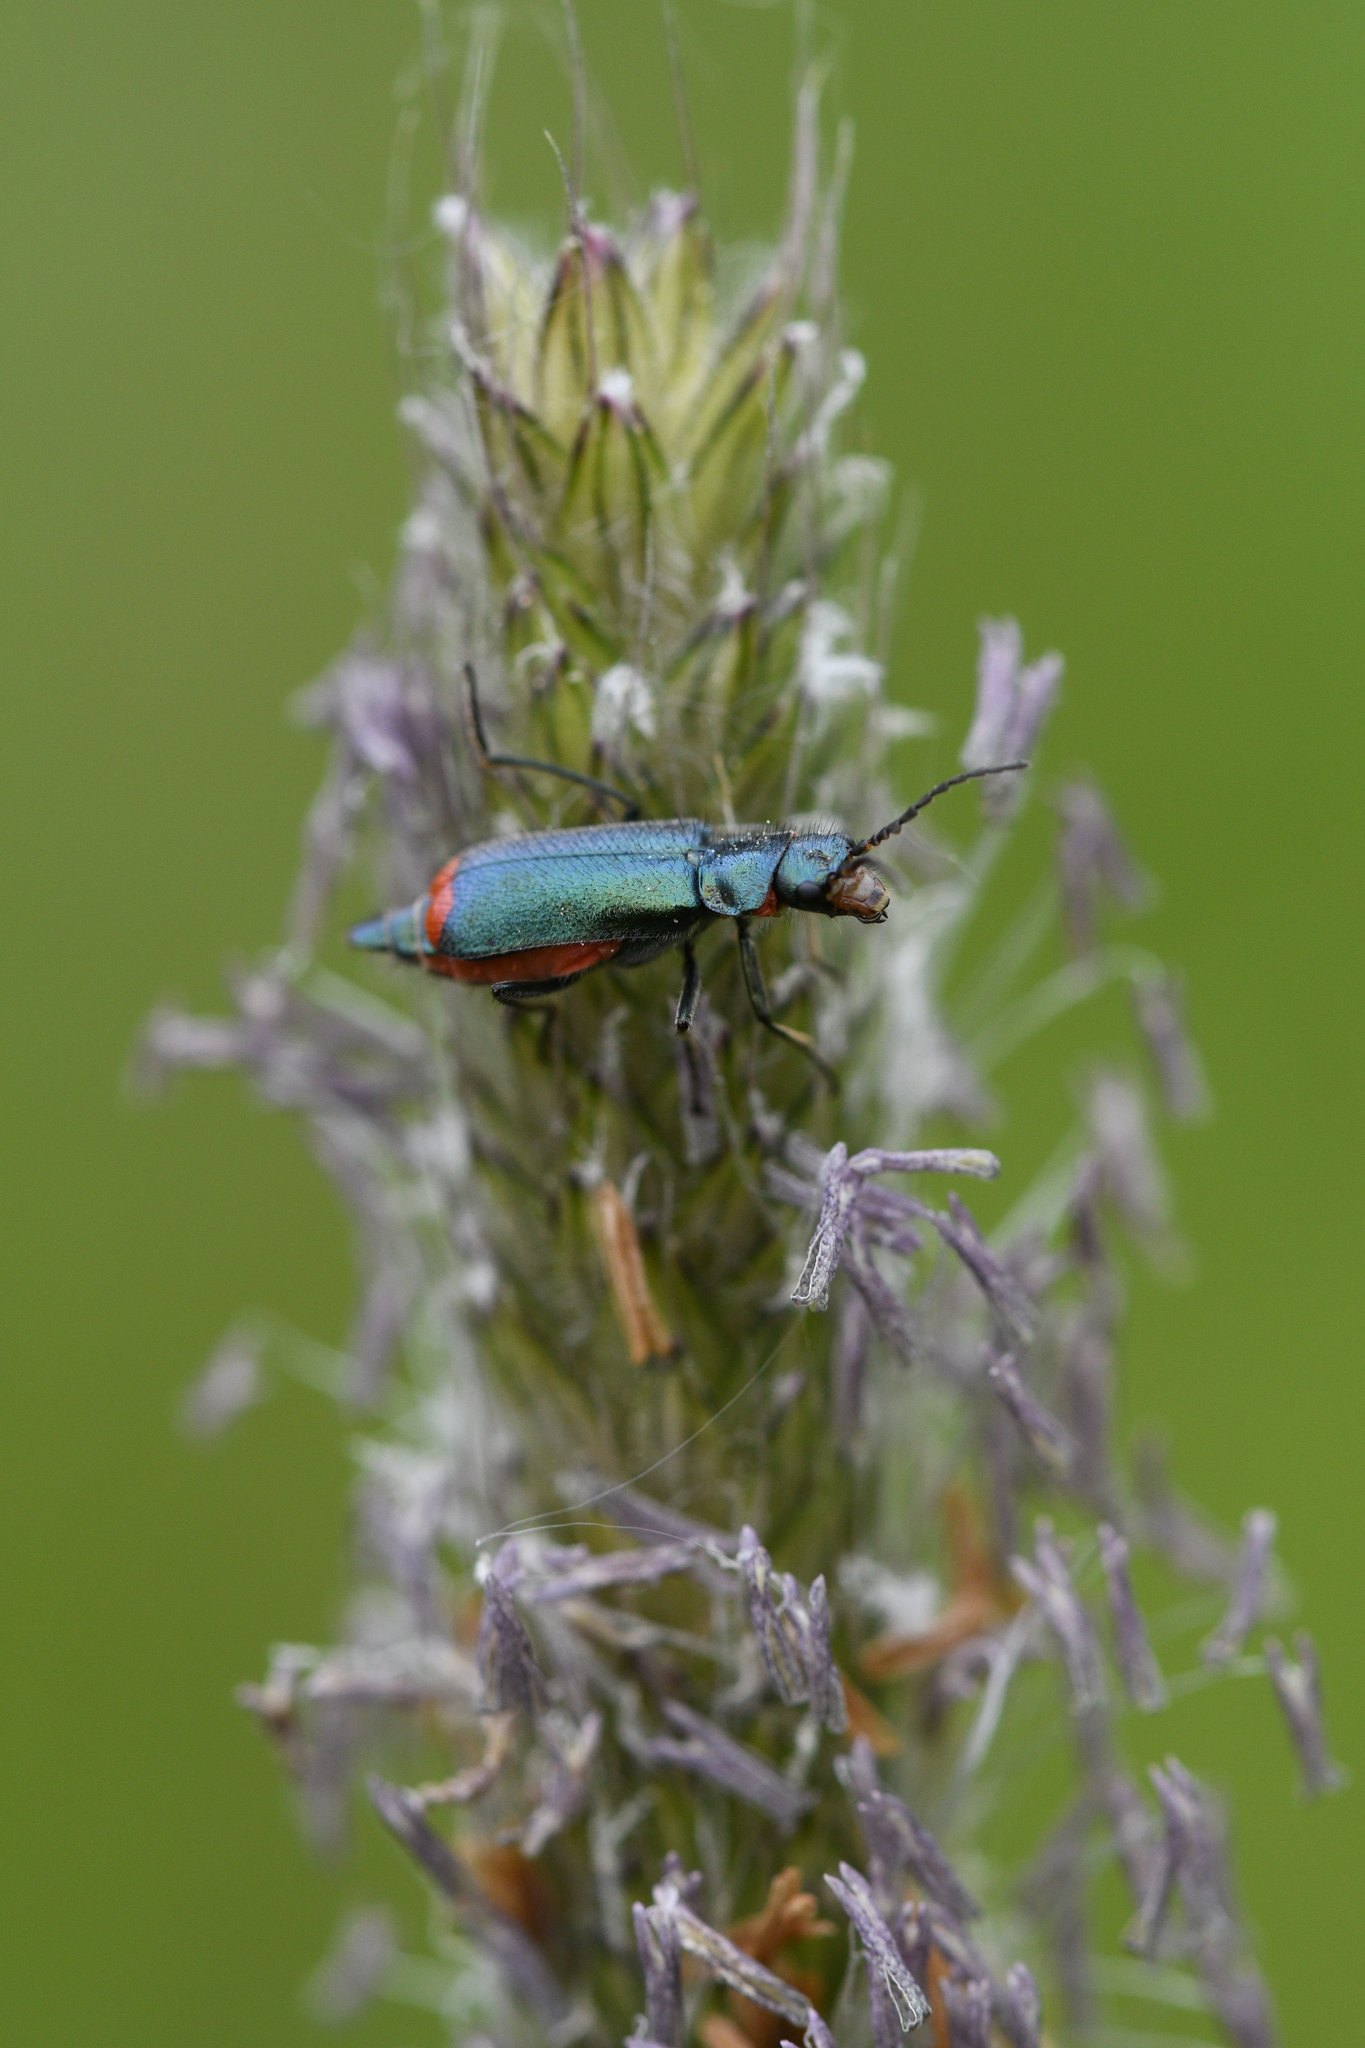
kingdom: Animalia
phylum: Arthropoda
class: Insecta
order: Coleoptera
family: Melyridae
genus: Malachius
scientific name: Malachius bipustulatus
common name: Malachite beetle
